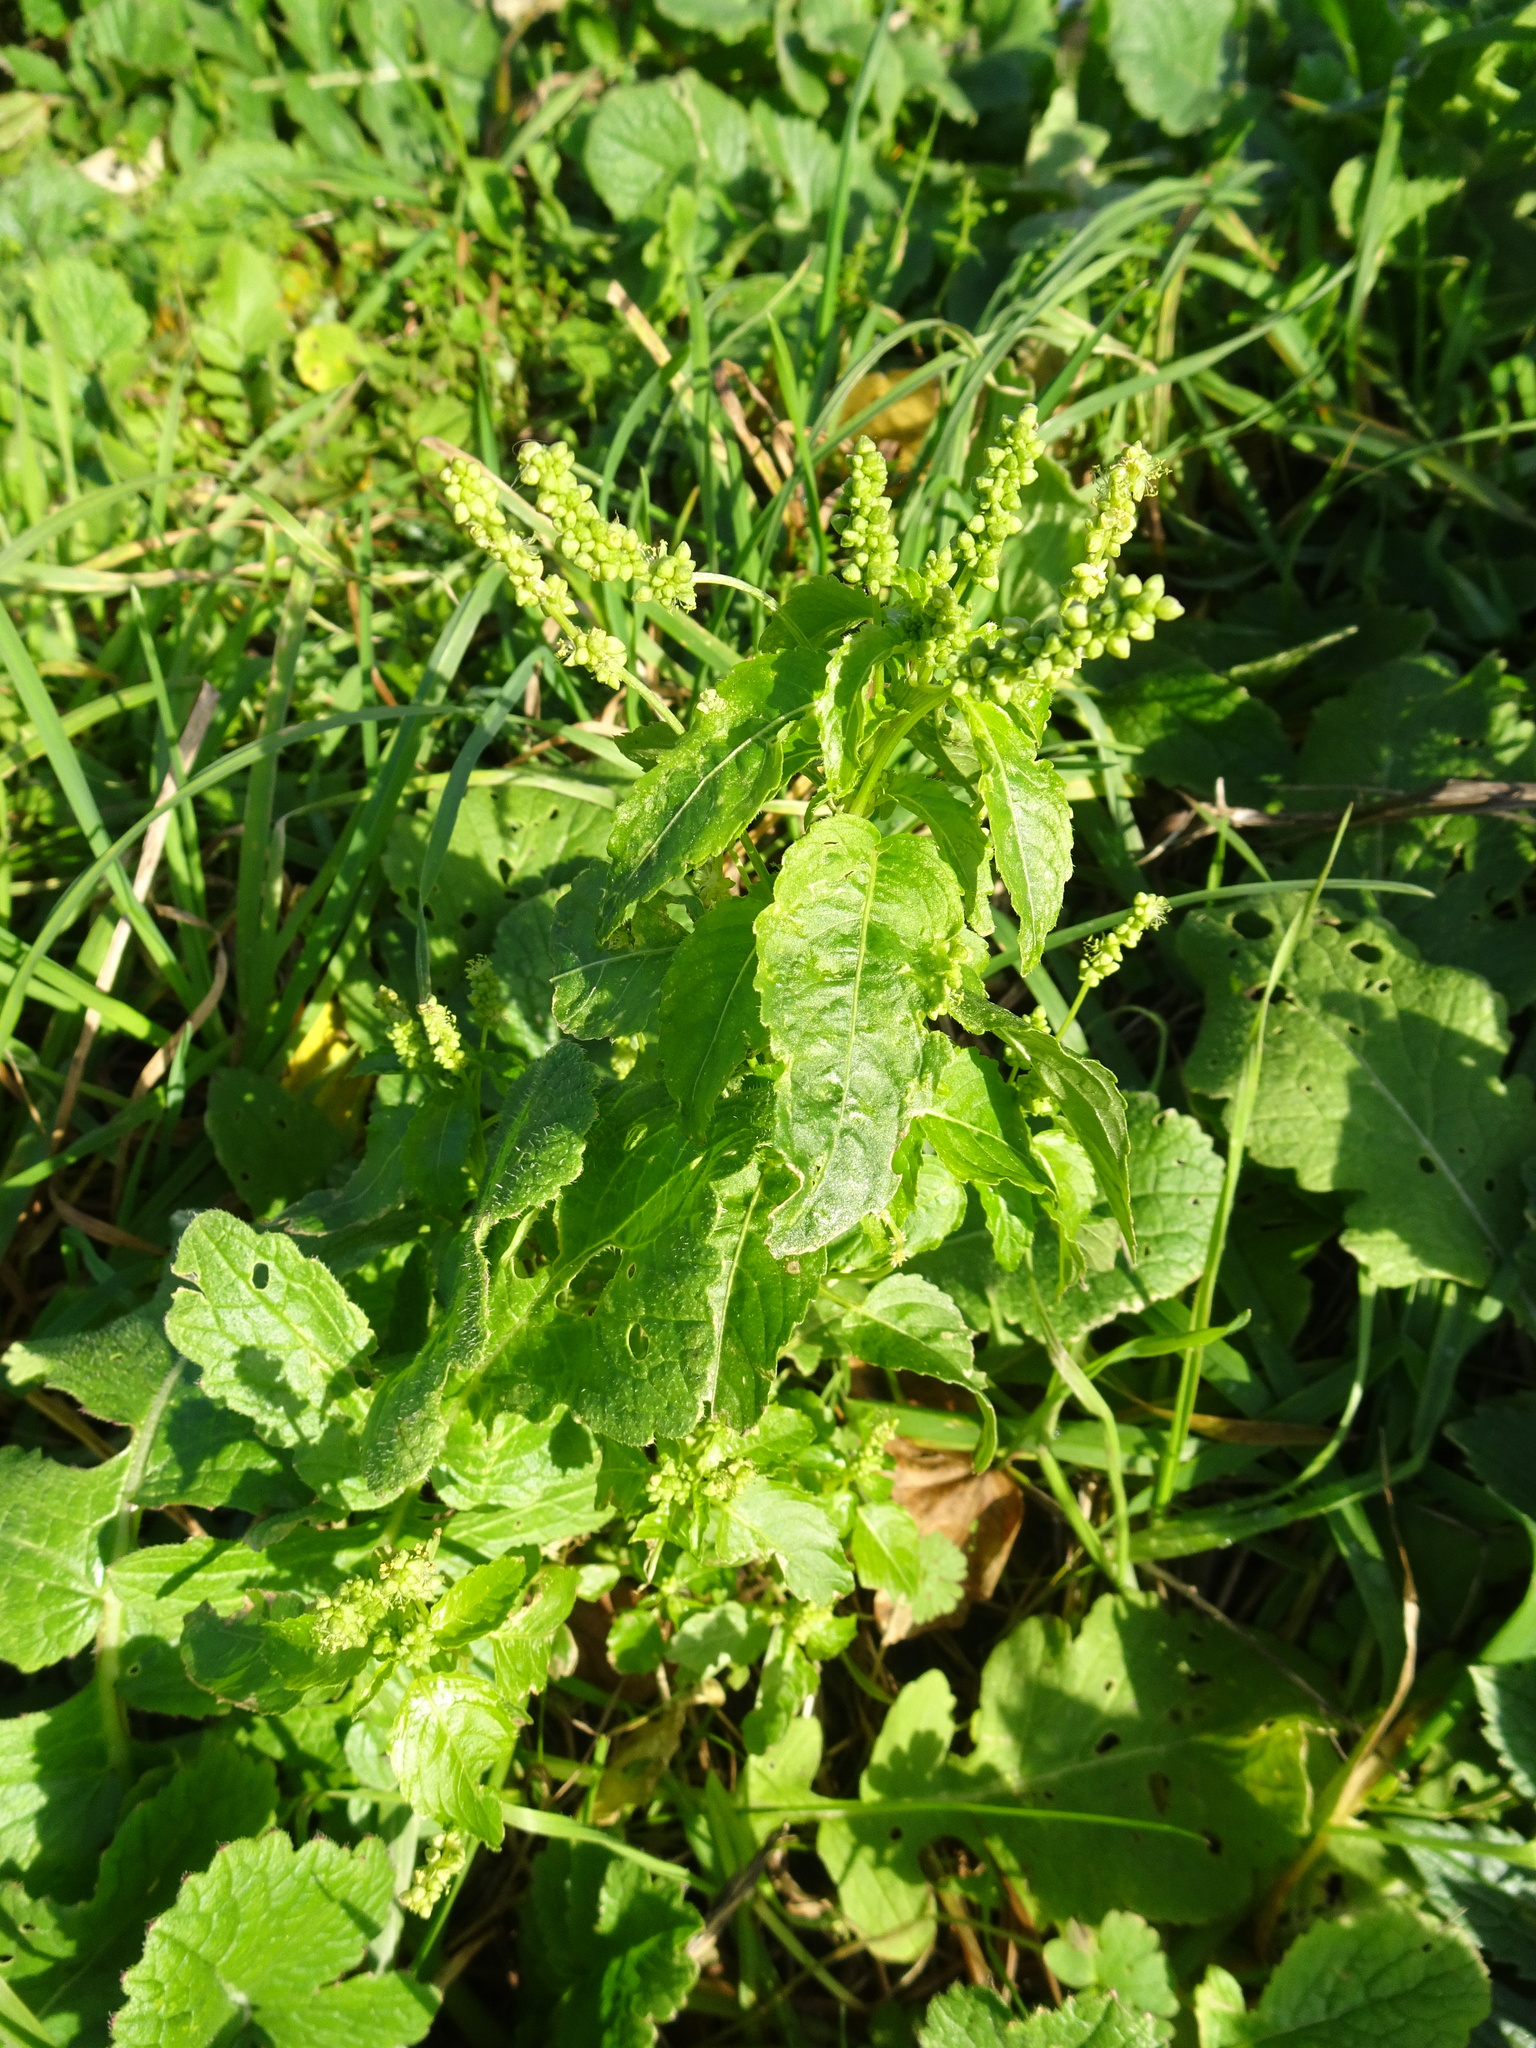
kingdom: Plantae
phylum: Tracheophyta
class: Magnoliopsida
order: Malpighiales
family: Euphorbiaceae
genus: Mercurialis
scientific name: Mercurialis annua
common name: Annual mercury
